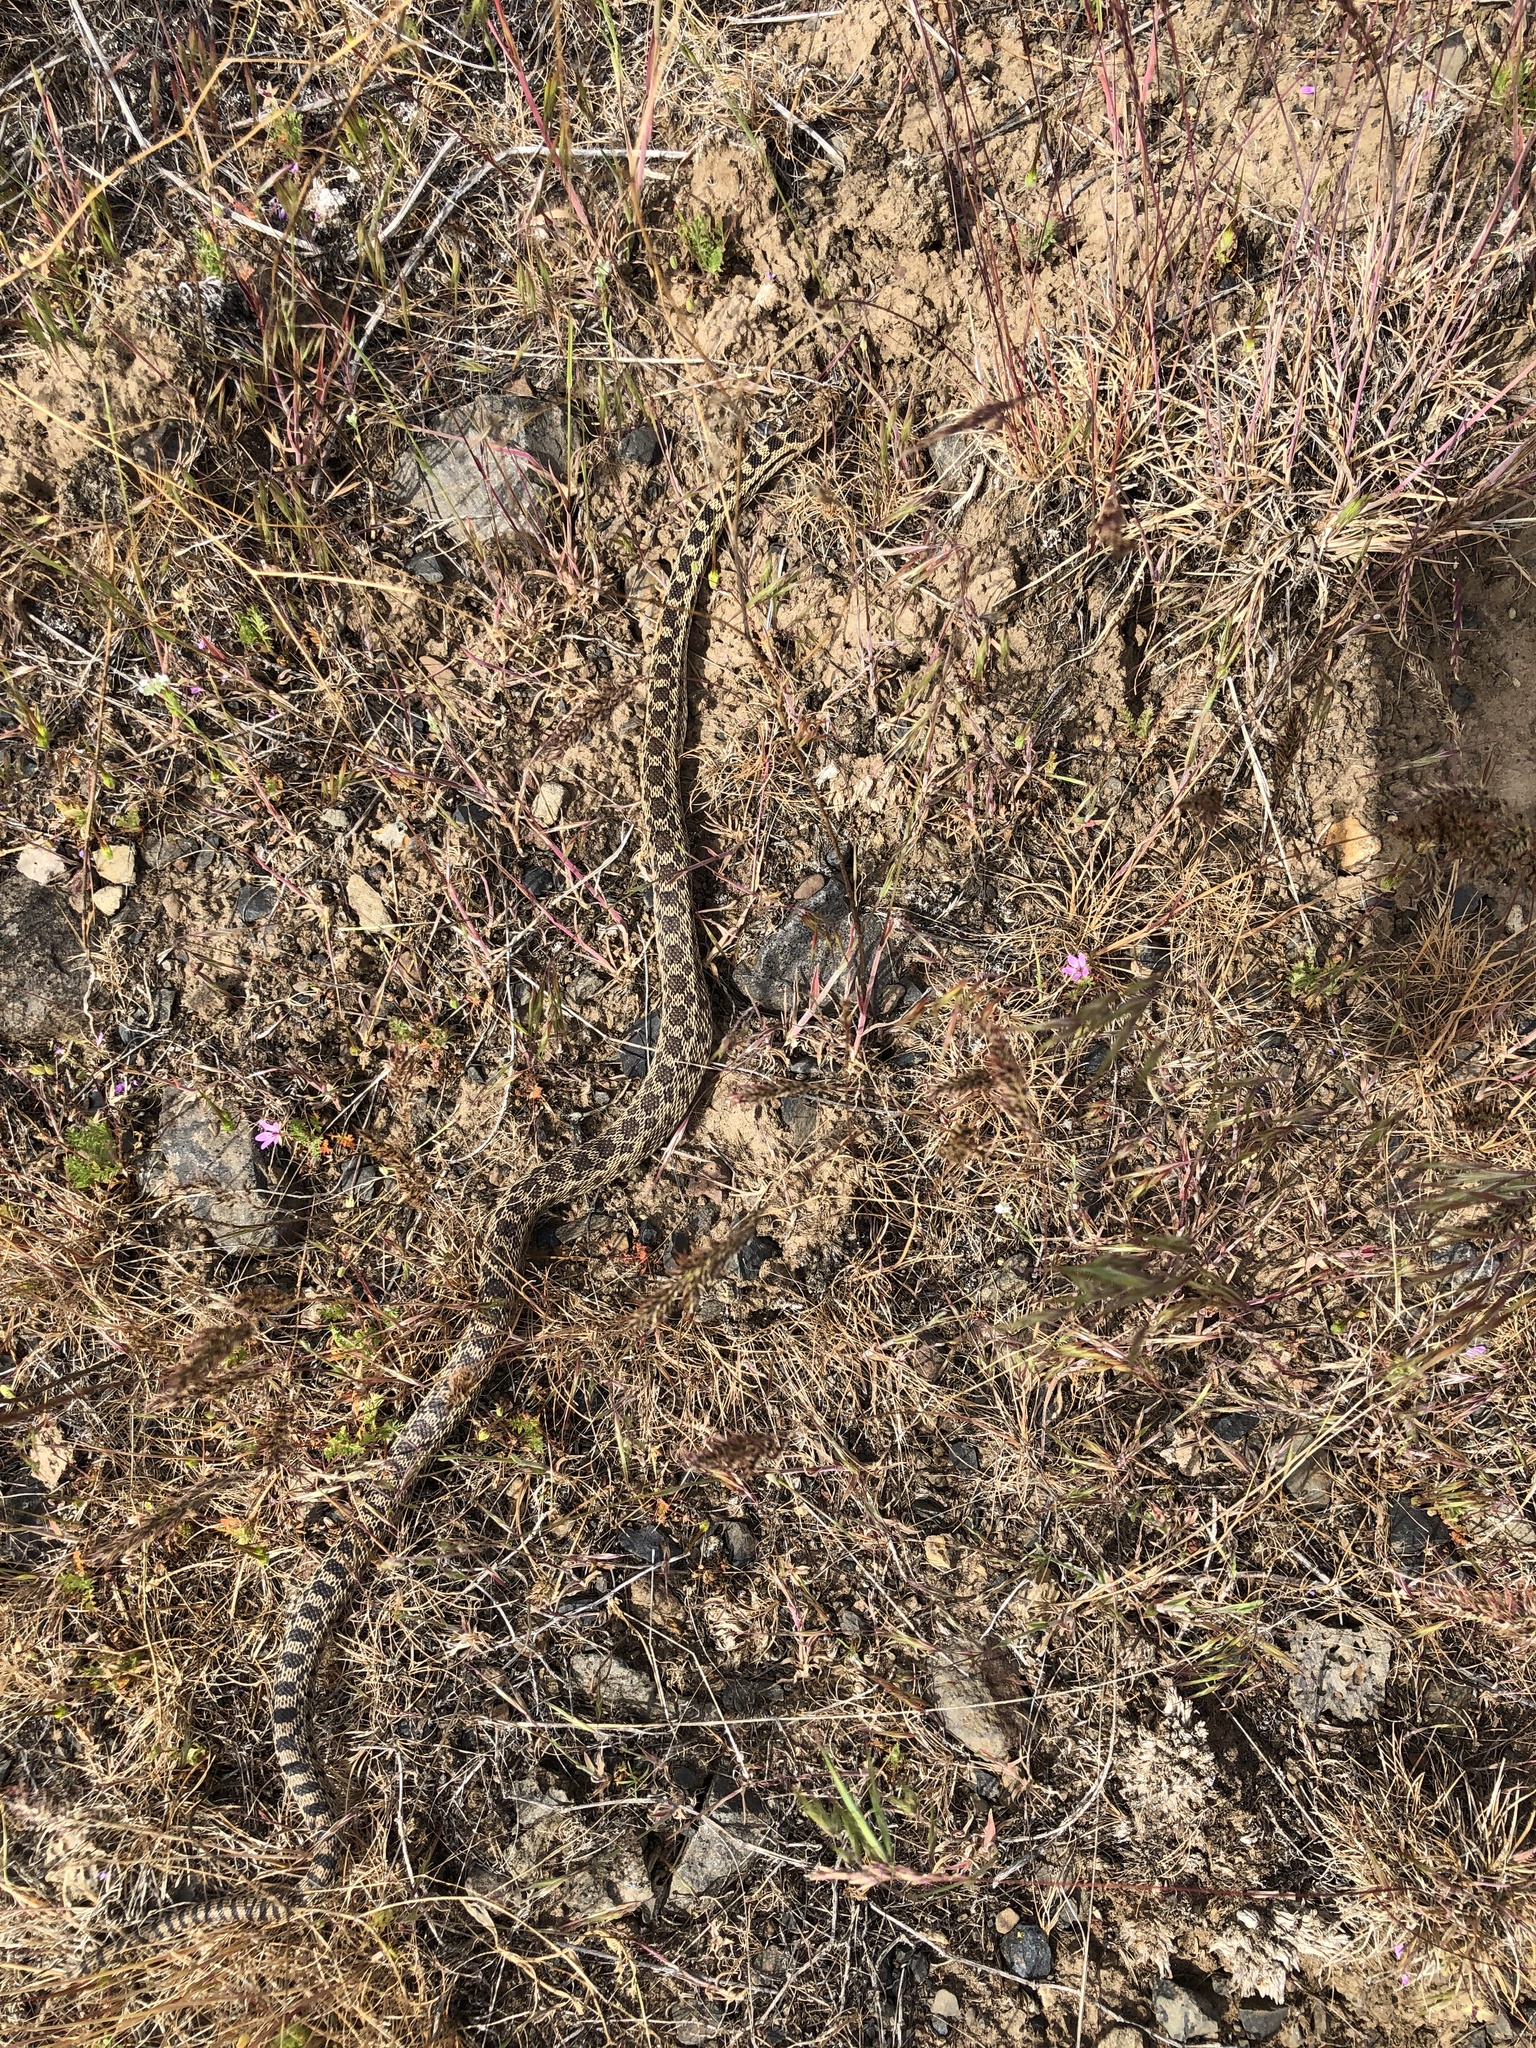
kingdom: Animalia
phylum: Chordata
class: Squamata
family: Colubridae
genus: Pituophis
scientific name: Pituophis catenifer
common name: Gopher snake
